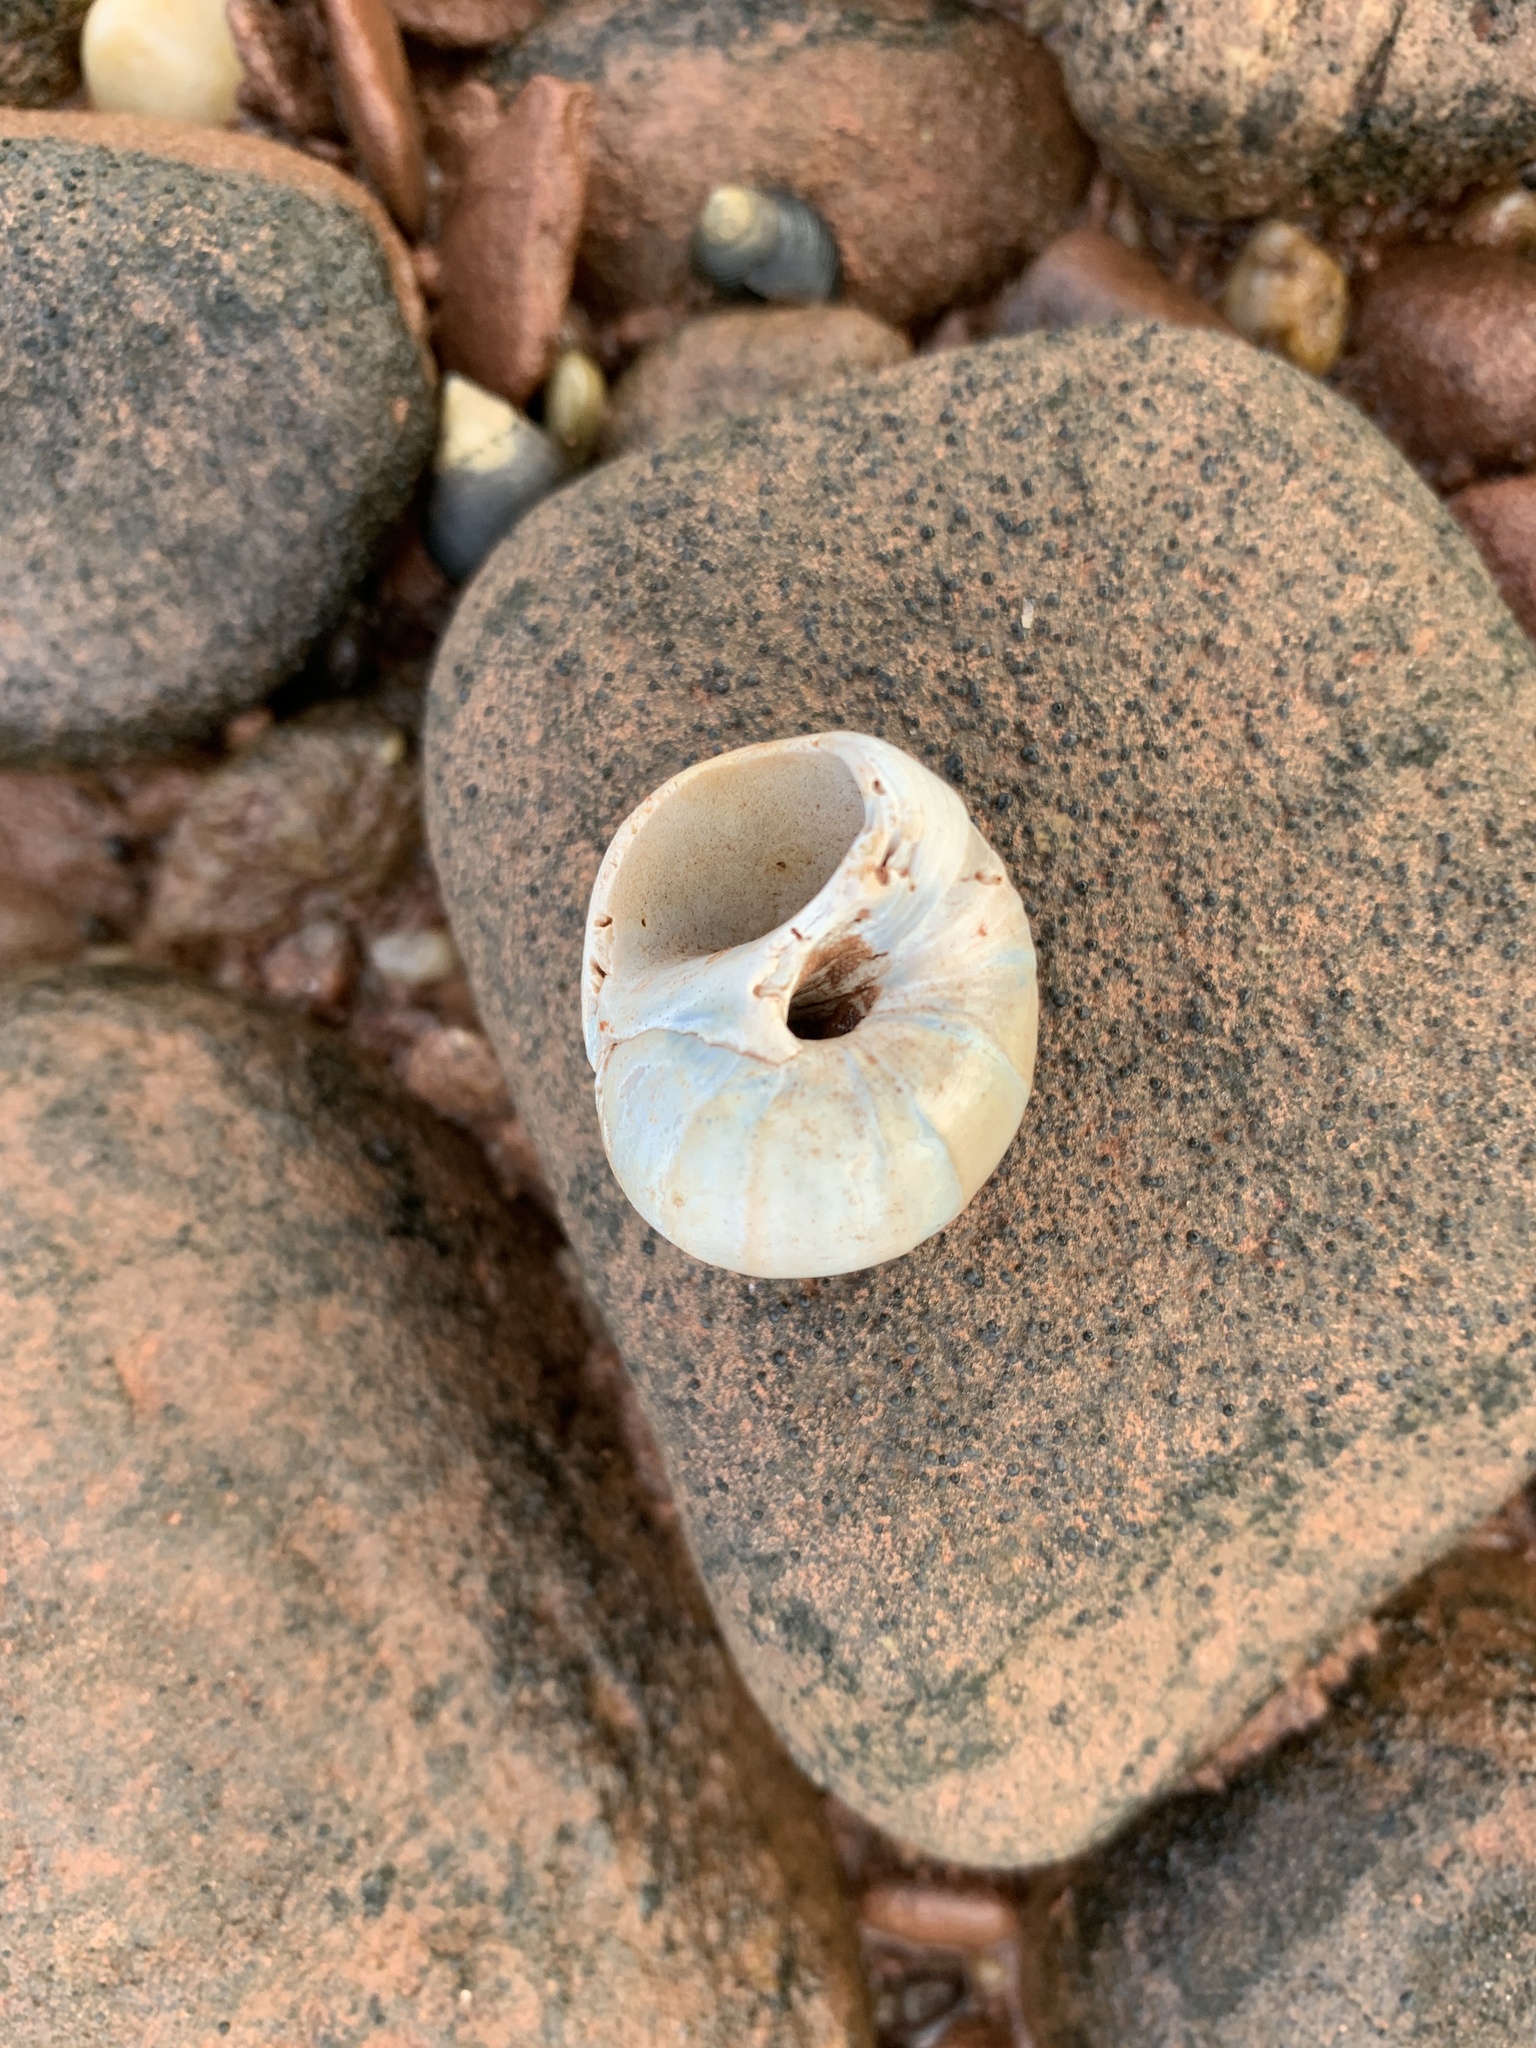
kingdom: Animalia
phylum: Mollusca
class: Gastropoda
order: Littorinimorpha
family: Naticidae
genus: Euspira
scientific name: Euspira heros
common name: Common northern moonsnail
